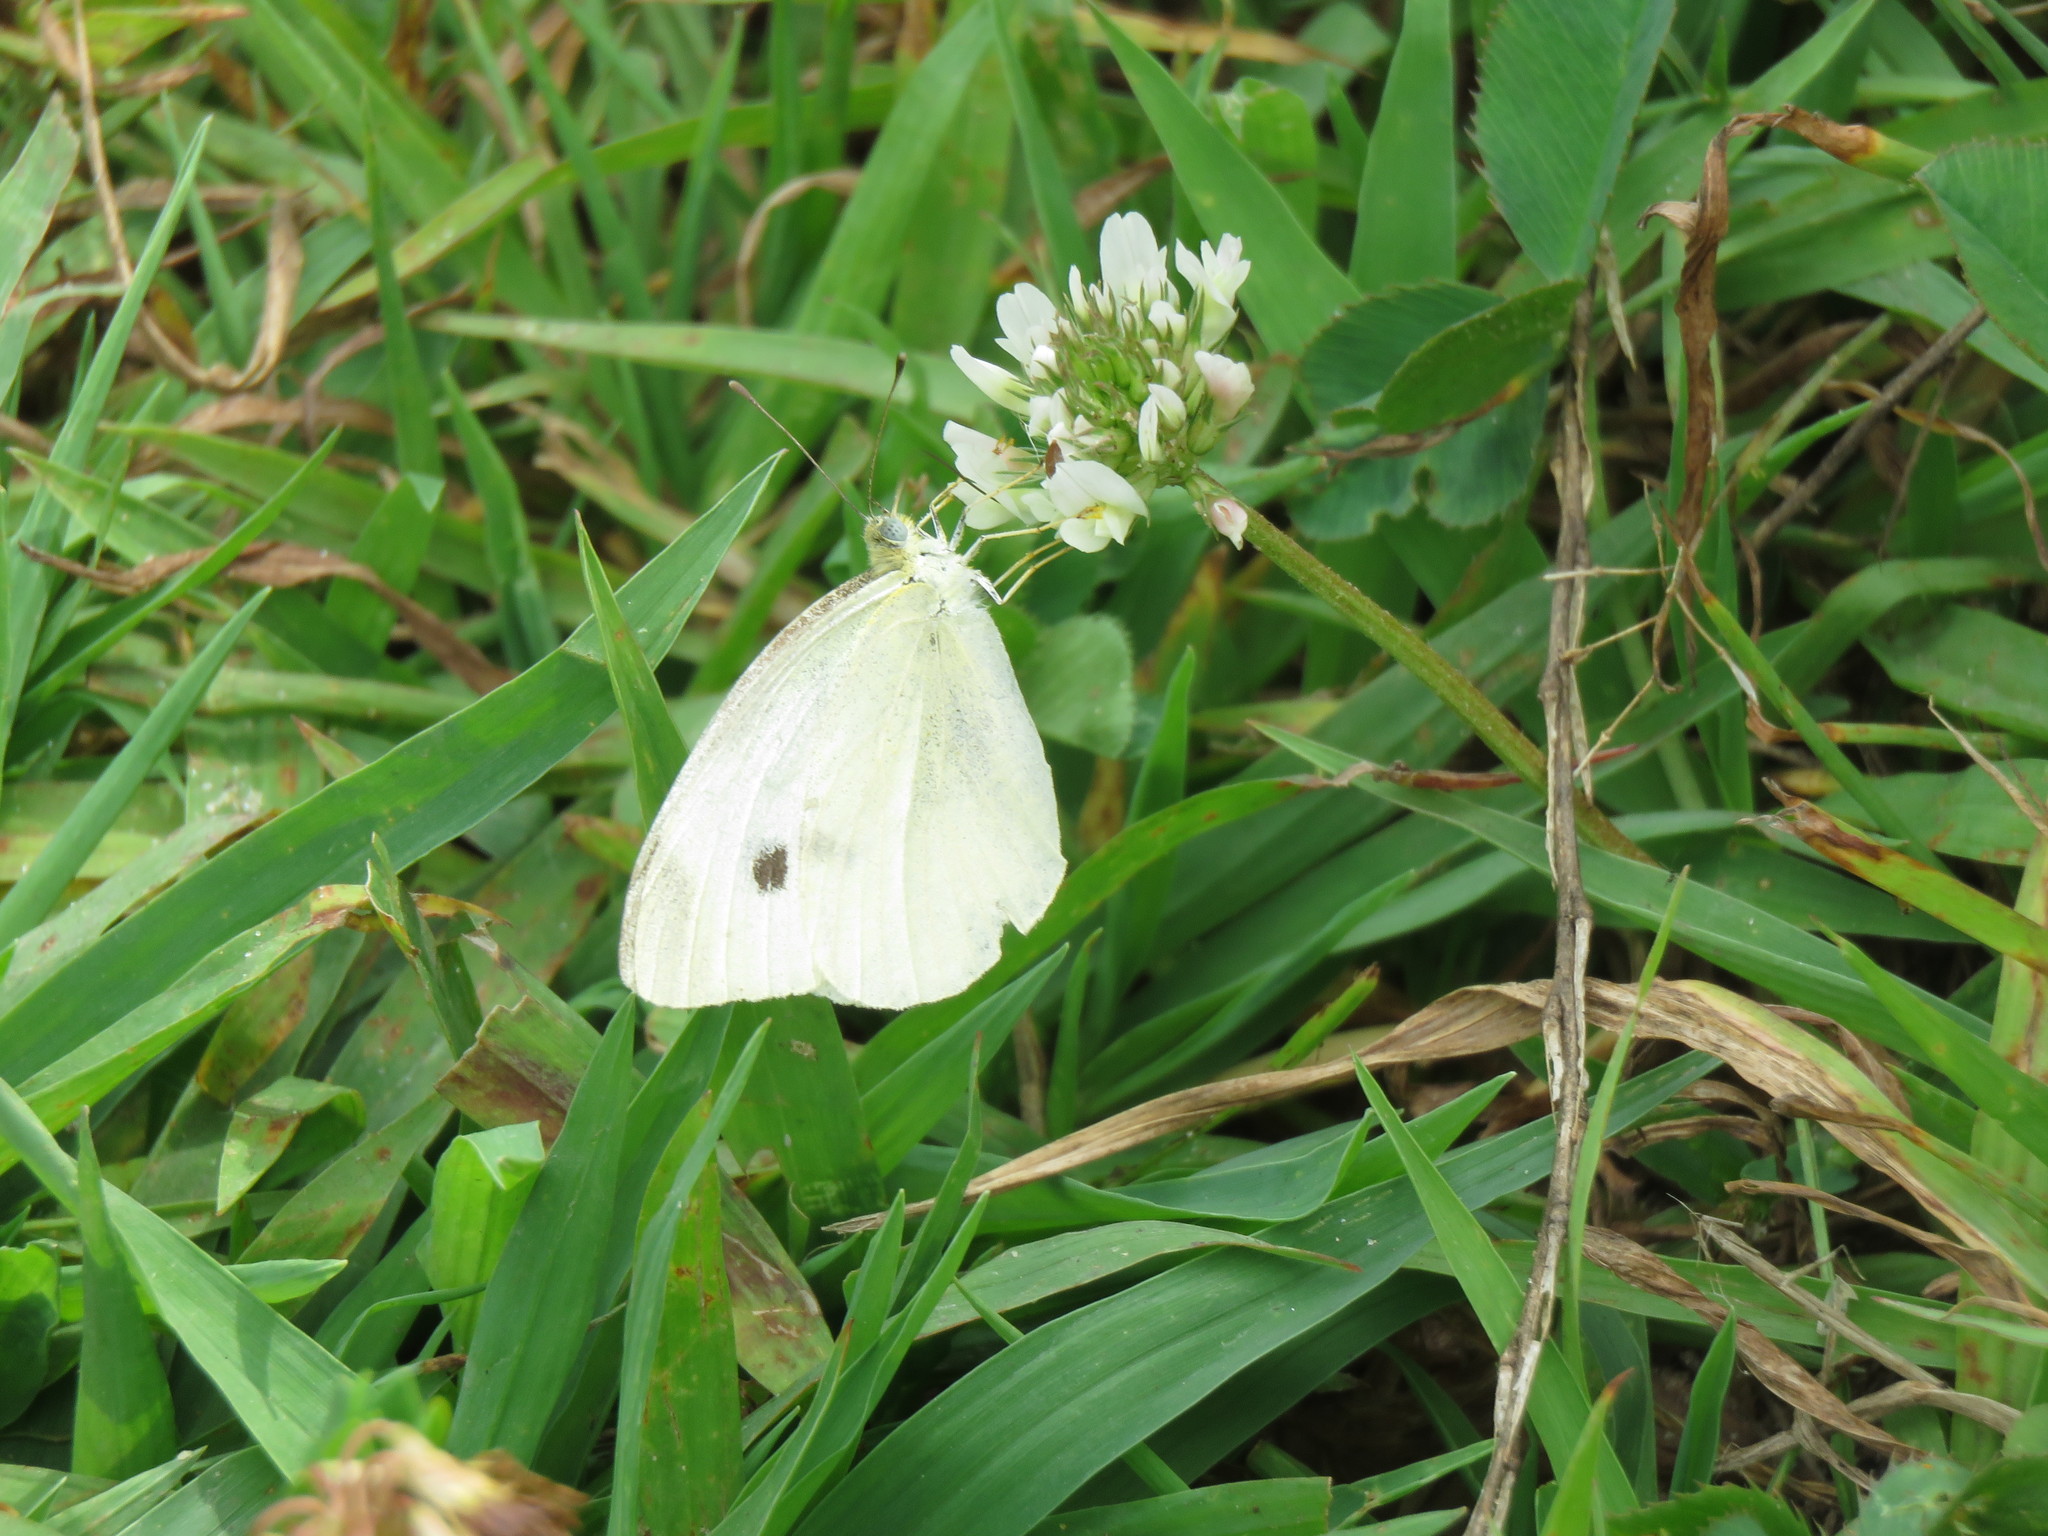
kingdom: Animalia
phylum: Arthropoda
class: Insecta
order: Lepidoptera
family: Pieridae
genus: Pieris
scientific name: Pieris rapae
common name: Small white
